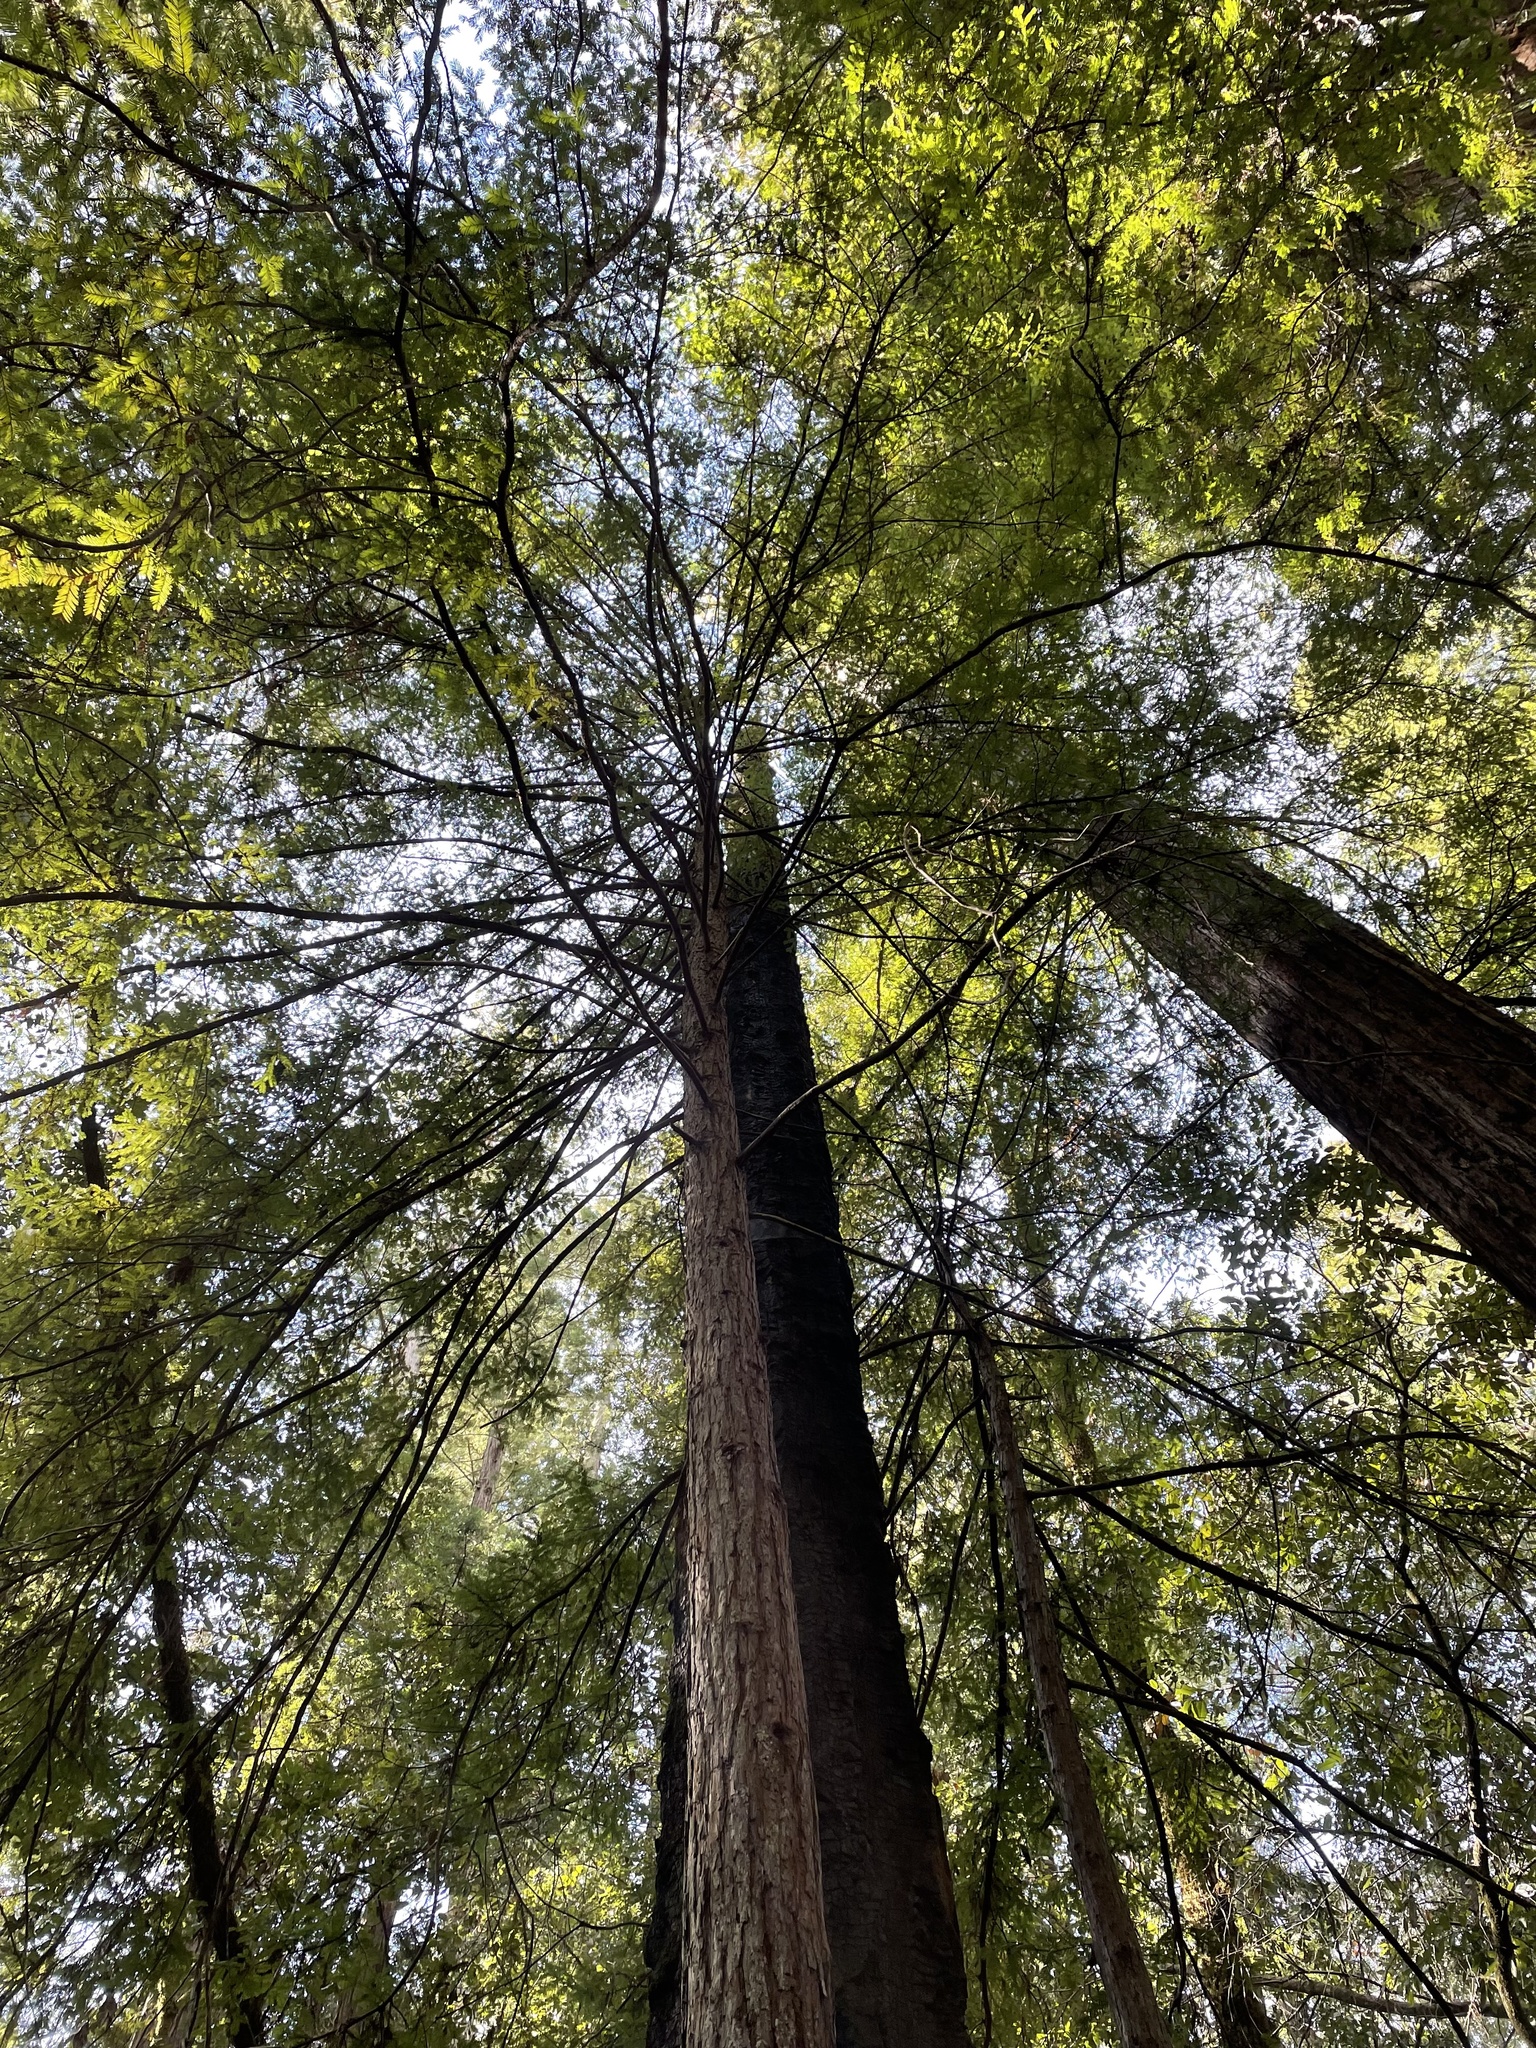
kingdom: Plantae
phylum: Tracheophyta
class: Pinopsida
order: Pinales
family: Cupressaceae
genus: Sequoia
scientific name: Sequoia sempervirens
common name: Coast redwood
